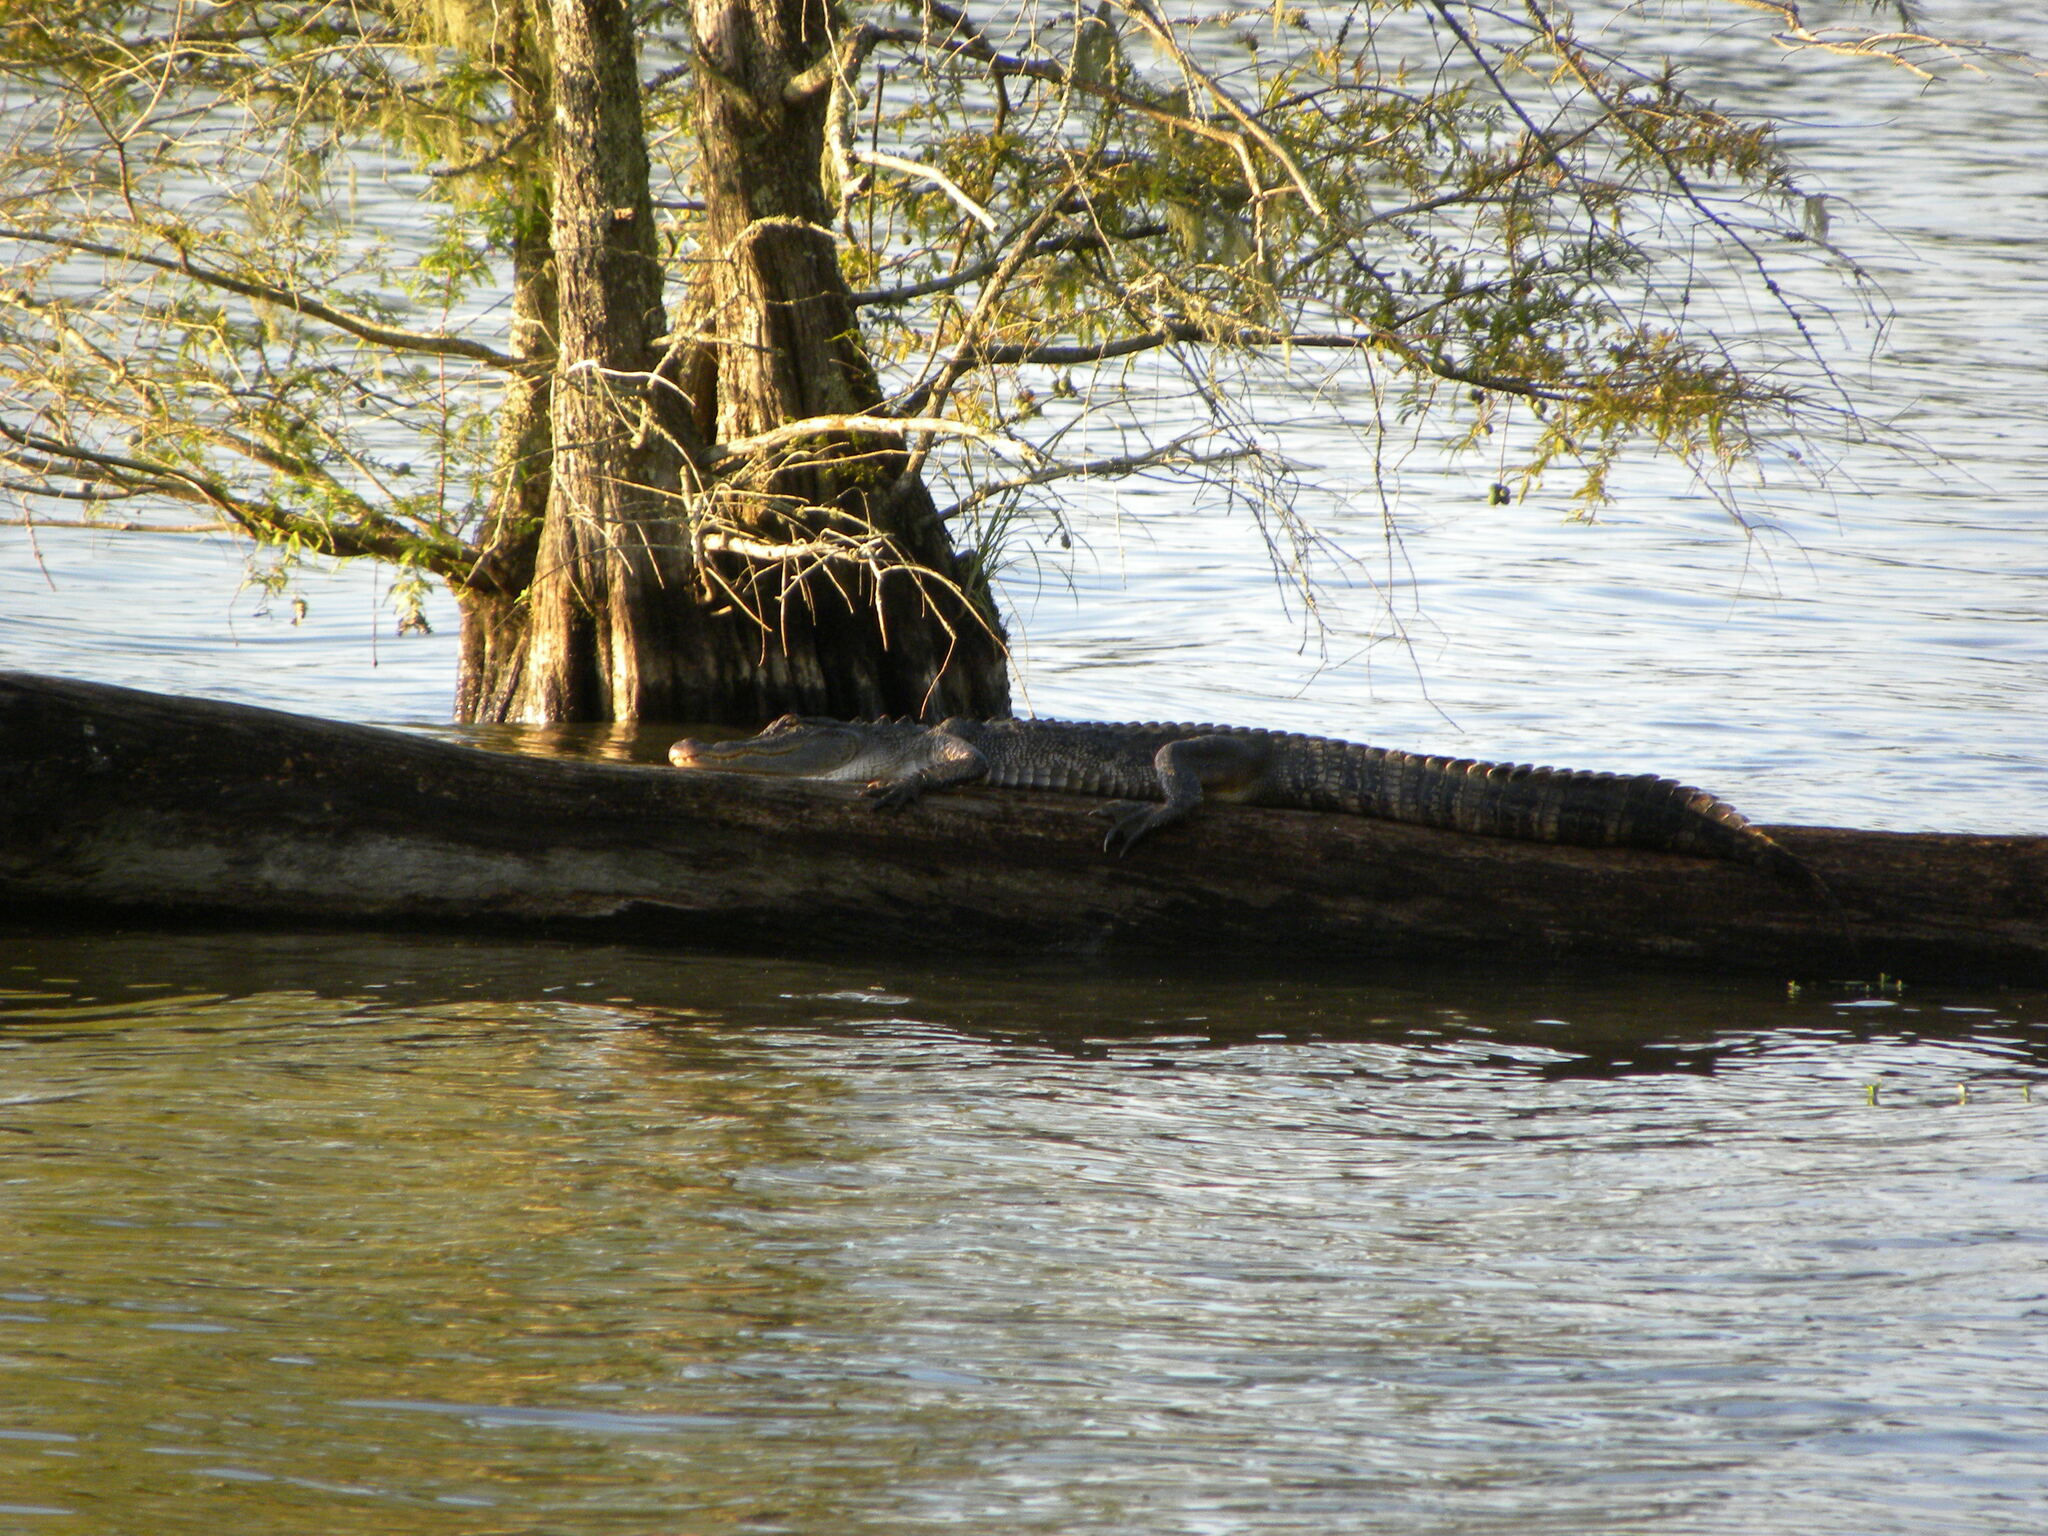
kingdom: Animalia
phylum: Chordata
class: Crocodylia
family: Alligatoridae
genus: Alligator
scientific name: Alligator mississippiensis
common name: American alligator
